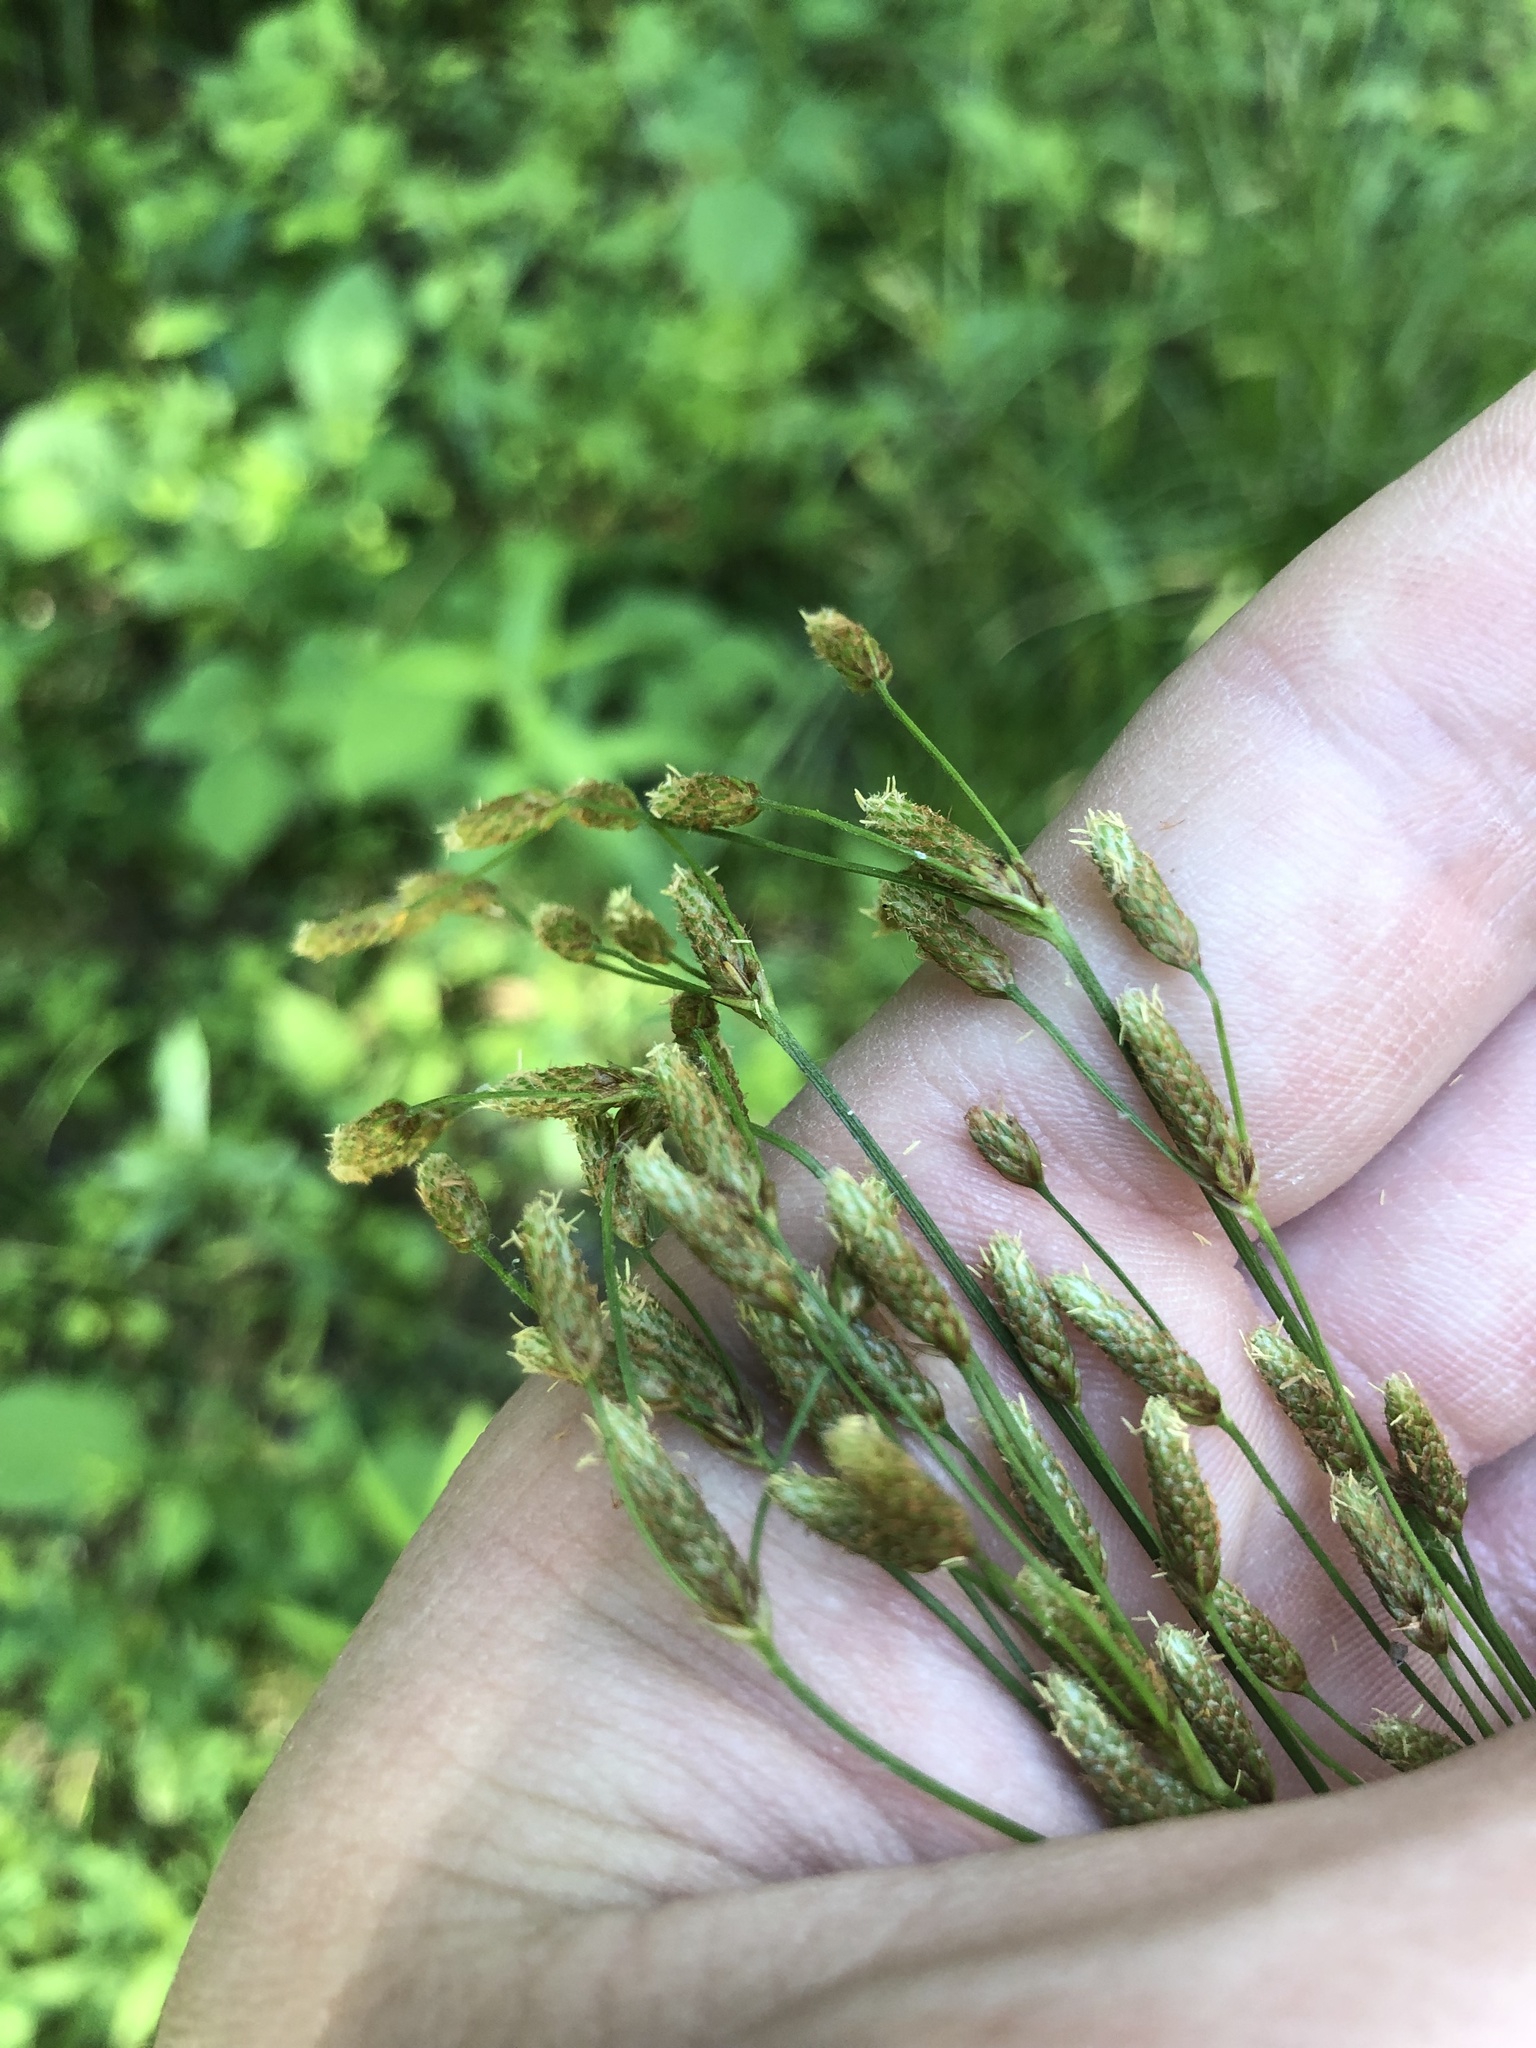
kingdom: Plantae
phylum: Tracheophyta
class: Liliopsida
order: Poales
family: Cyperaceae
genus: Scirpus
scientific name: Scirpus pendulus
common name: Nodding bulrush
